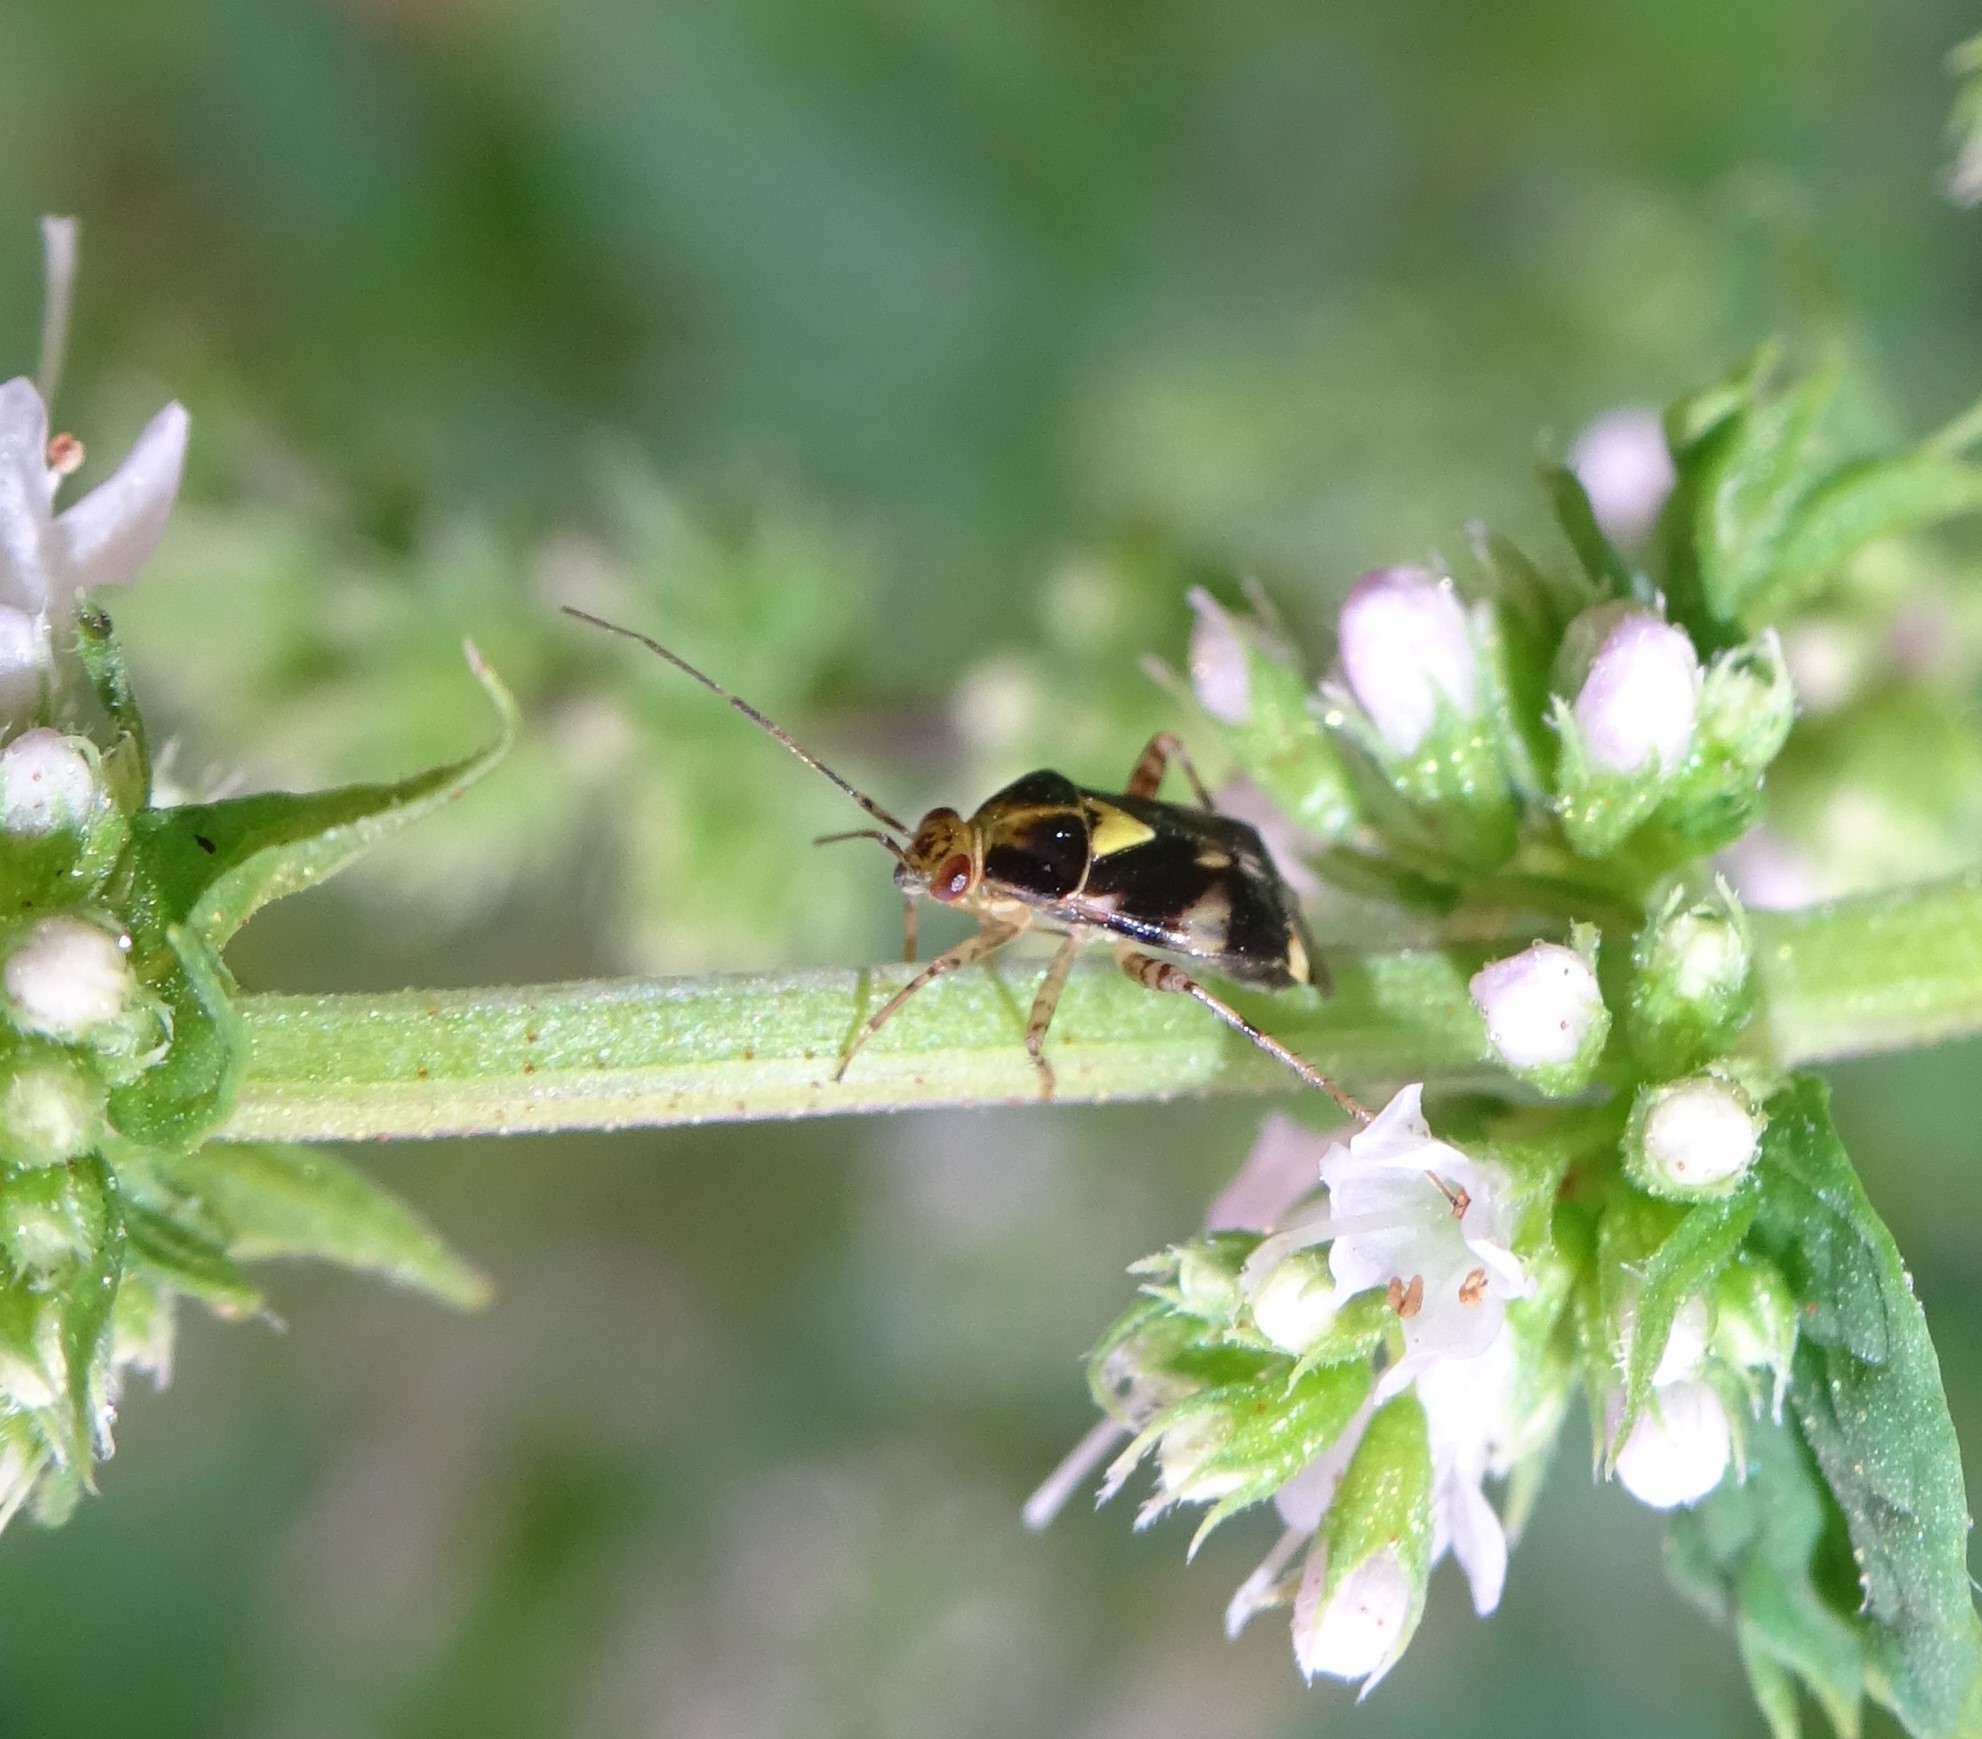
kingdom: Animalia
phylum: Arthropoda
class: Insecta
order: Hemiptera
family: Miridae
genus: Liocoris
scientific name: Liocoris tripustulatus
